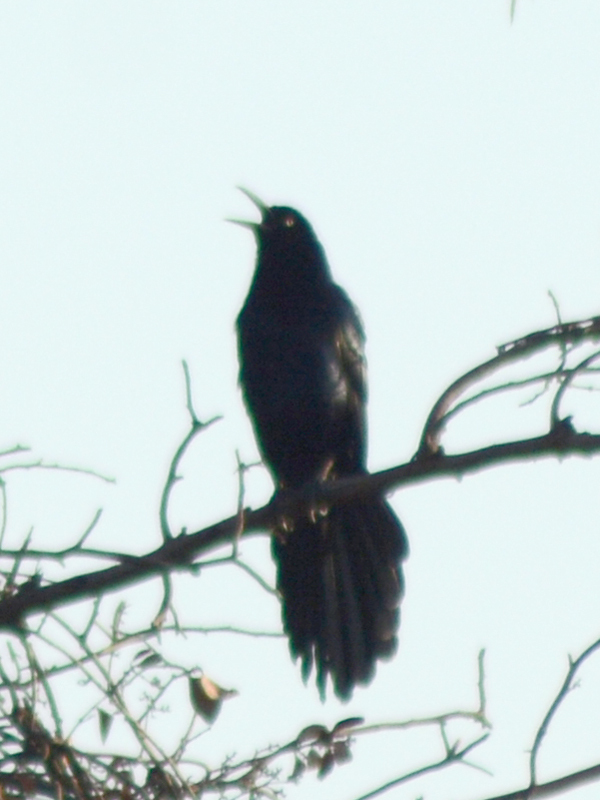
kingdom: Animalia
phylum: Chordata
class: Aves
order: Passeriformes
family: Icteridae
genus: Quiscalus
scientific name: Quiscalus mexicanus
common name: Great-tailed grackle
